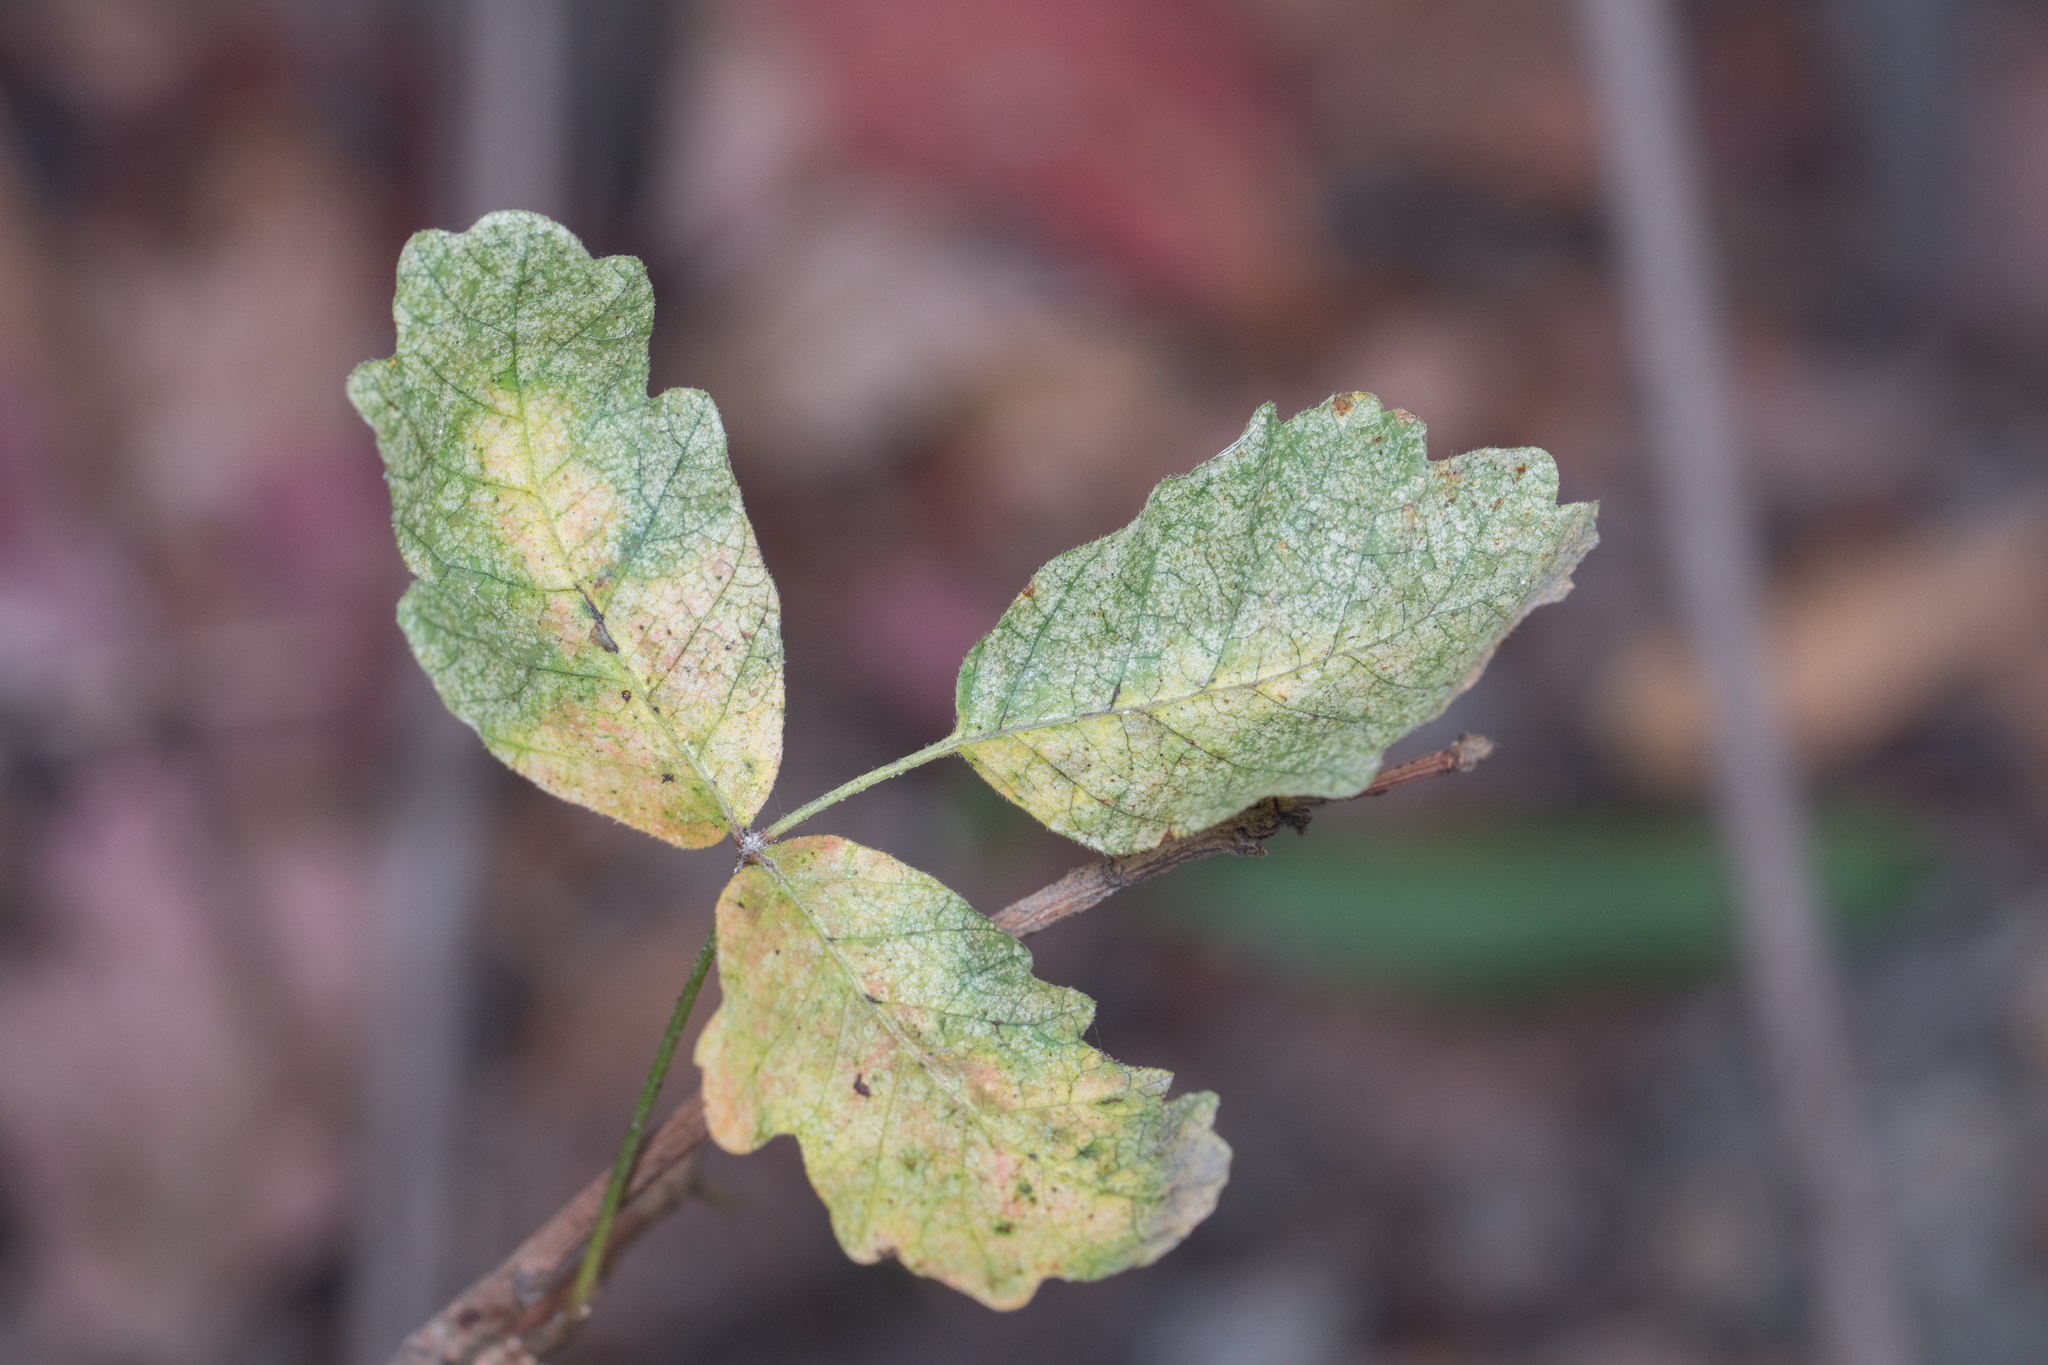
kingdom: Plantae
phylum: Tracheophyta
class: Magnoliopsida
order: Sapindales
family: Anacardiaceae
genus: Toxicodendron
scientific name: Toxicodendron diversilobum
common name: Pacific poison-oak
